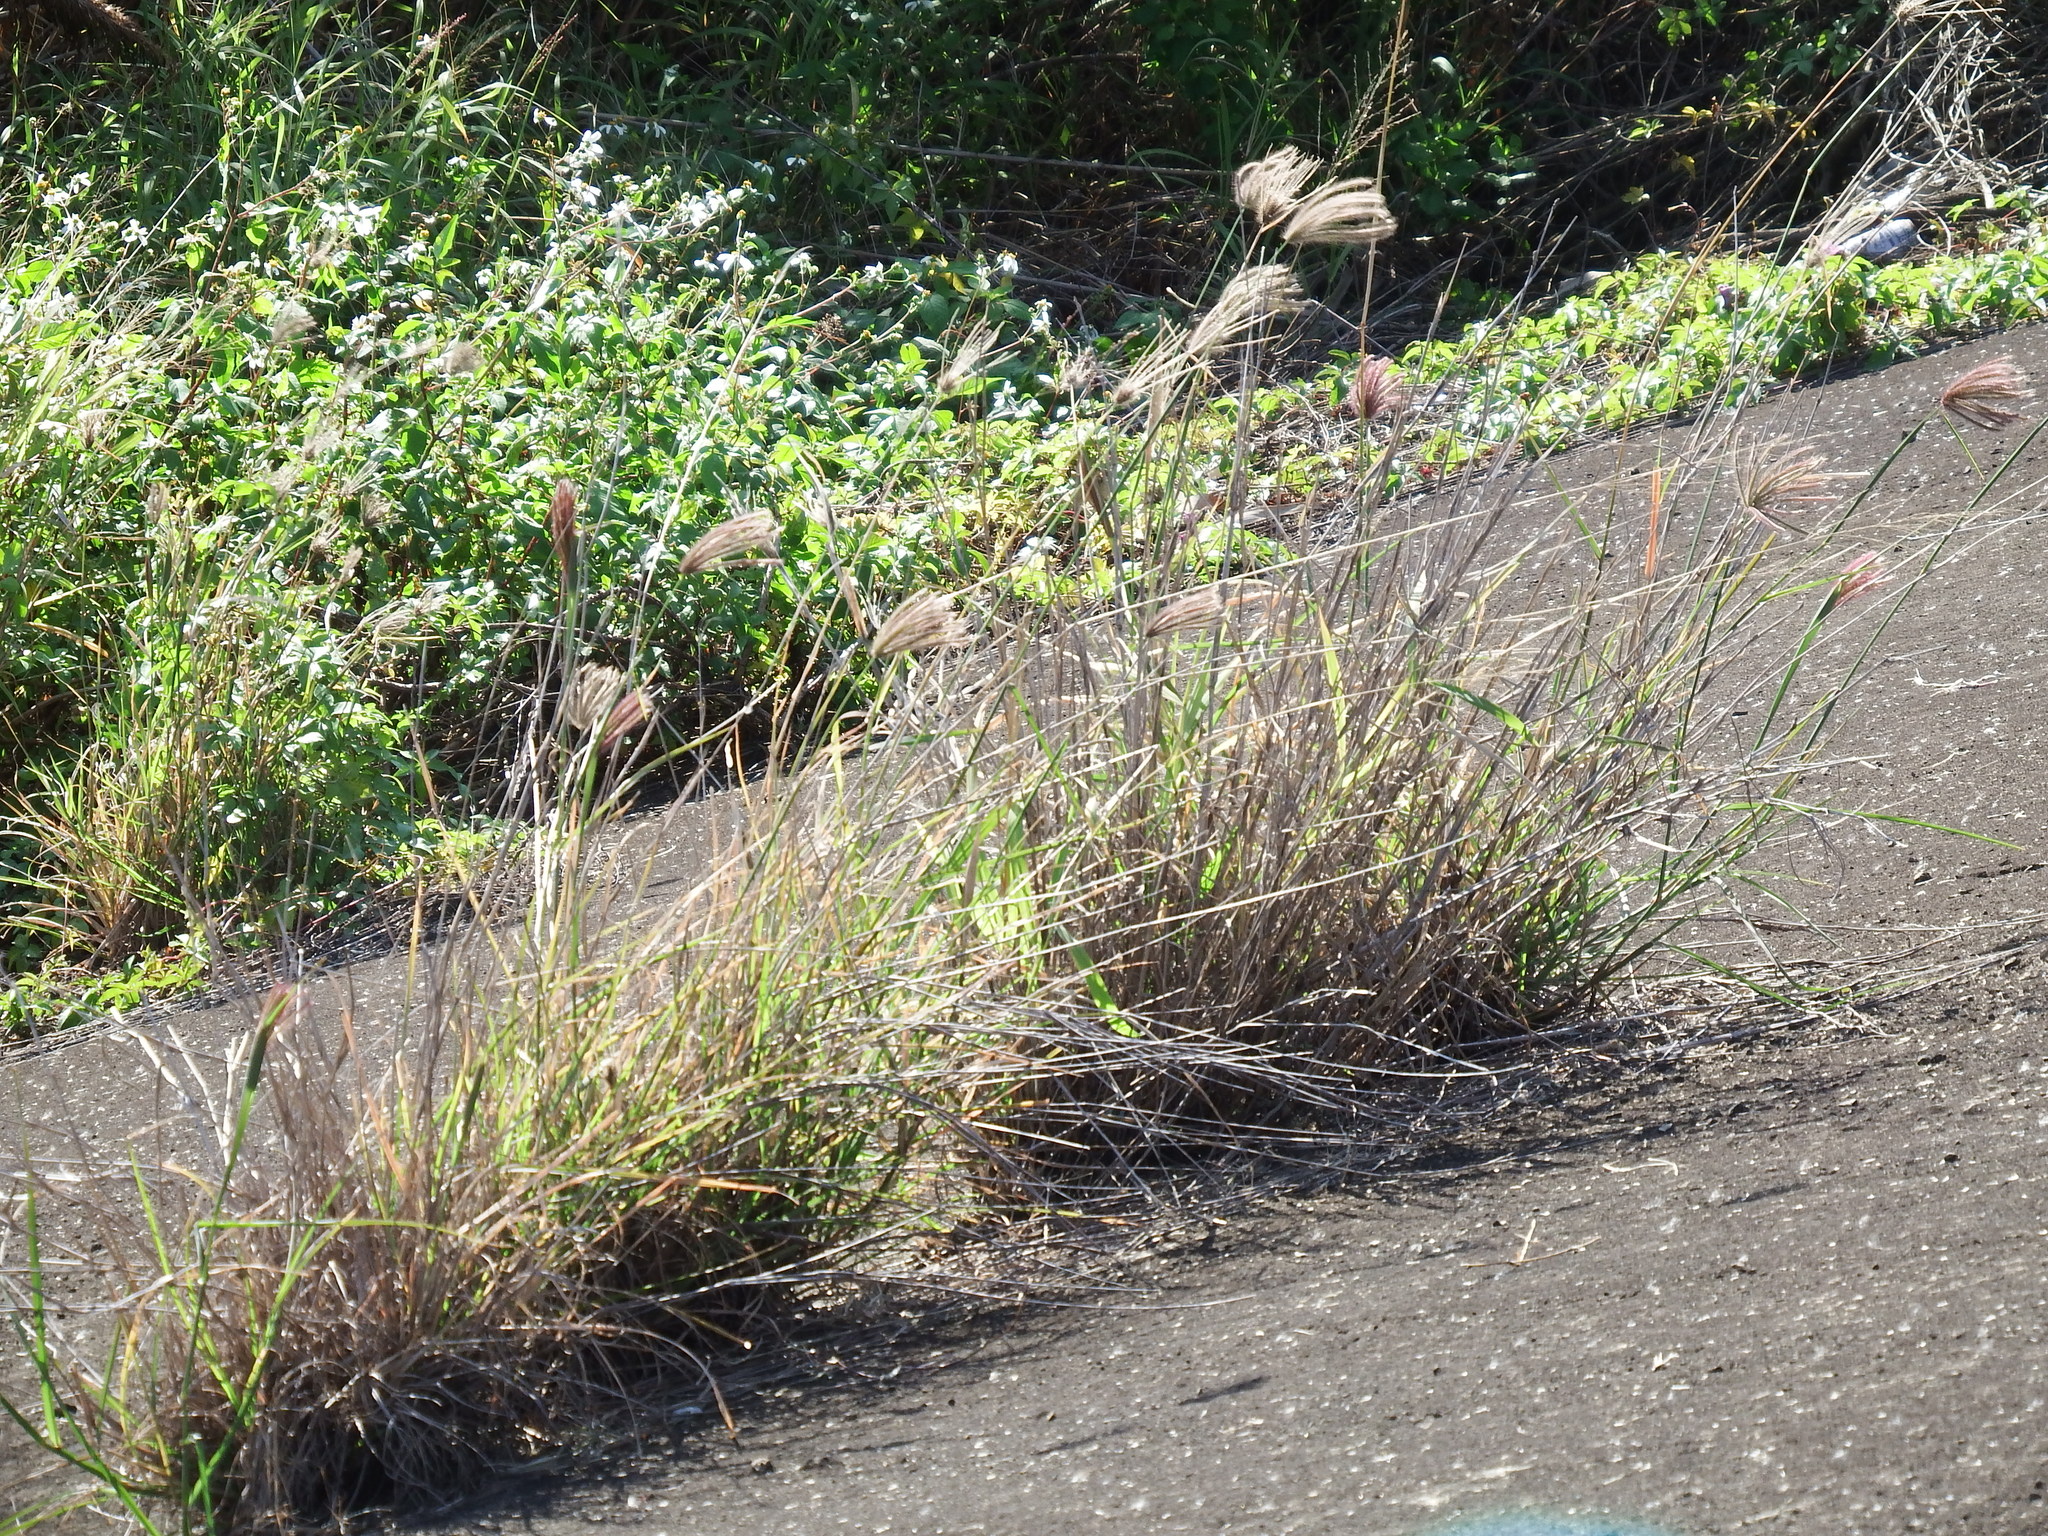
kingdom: Plantae
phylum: Tracheophyta
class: Liliopsida
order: Poales
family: Poaceae
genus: Chloris
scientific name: Chloris barbata
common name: Swollen fingergrass
